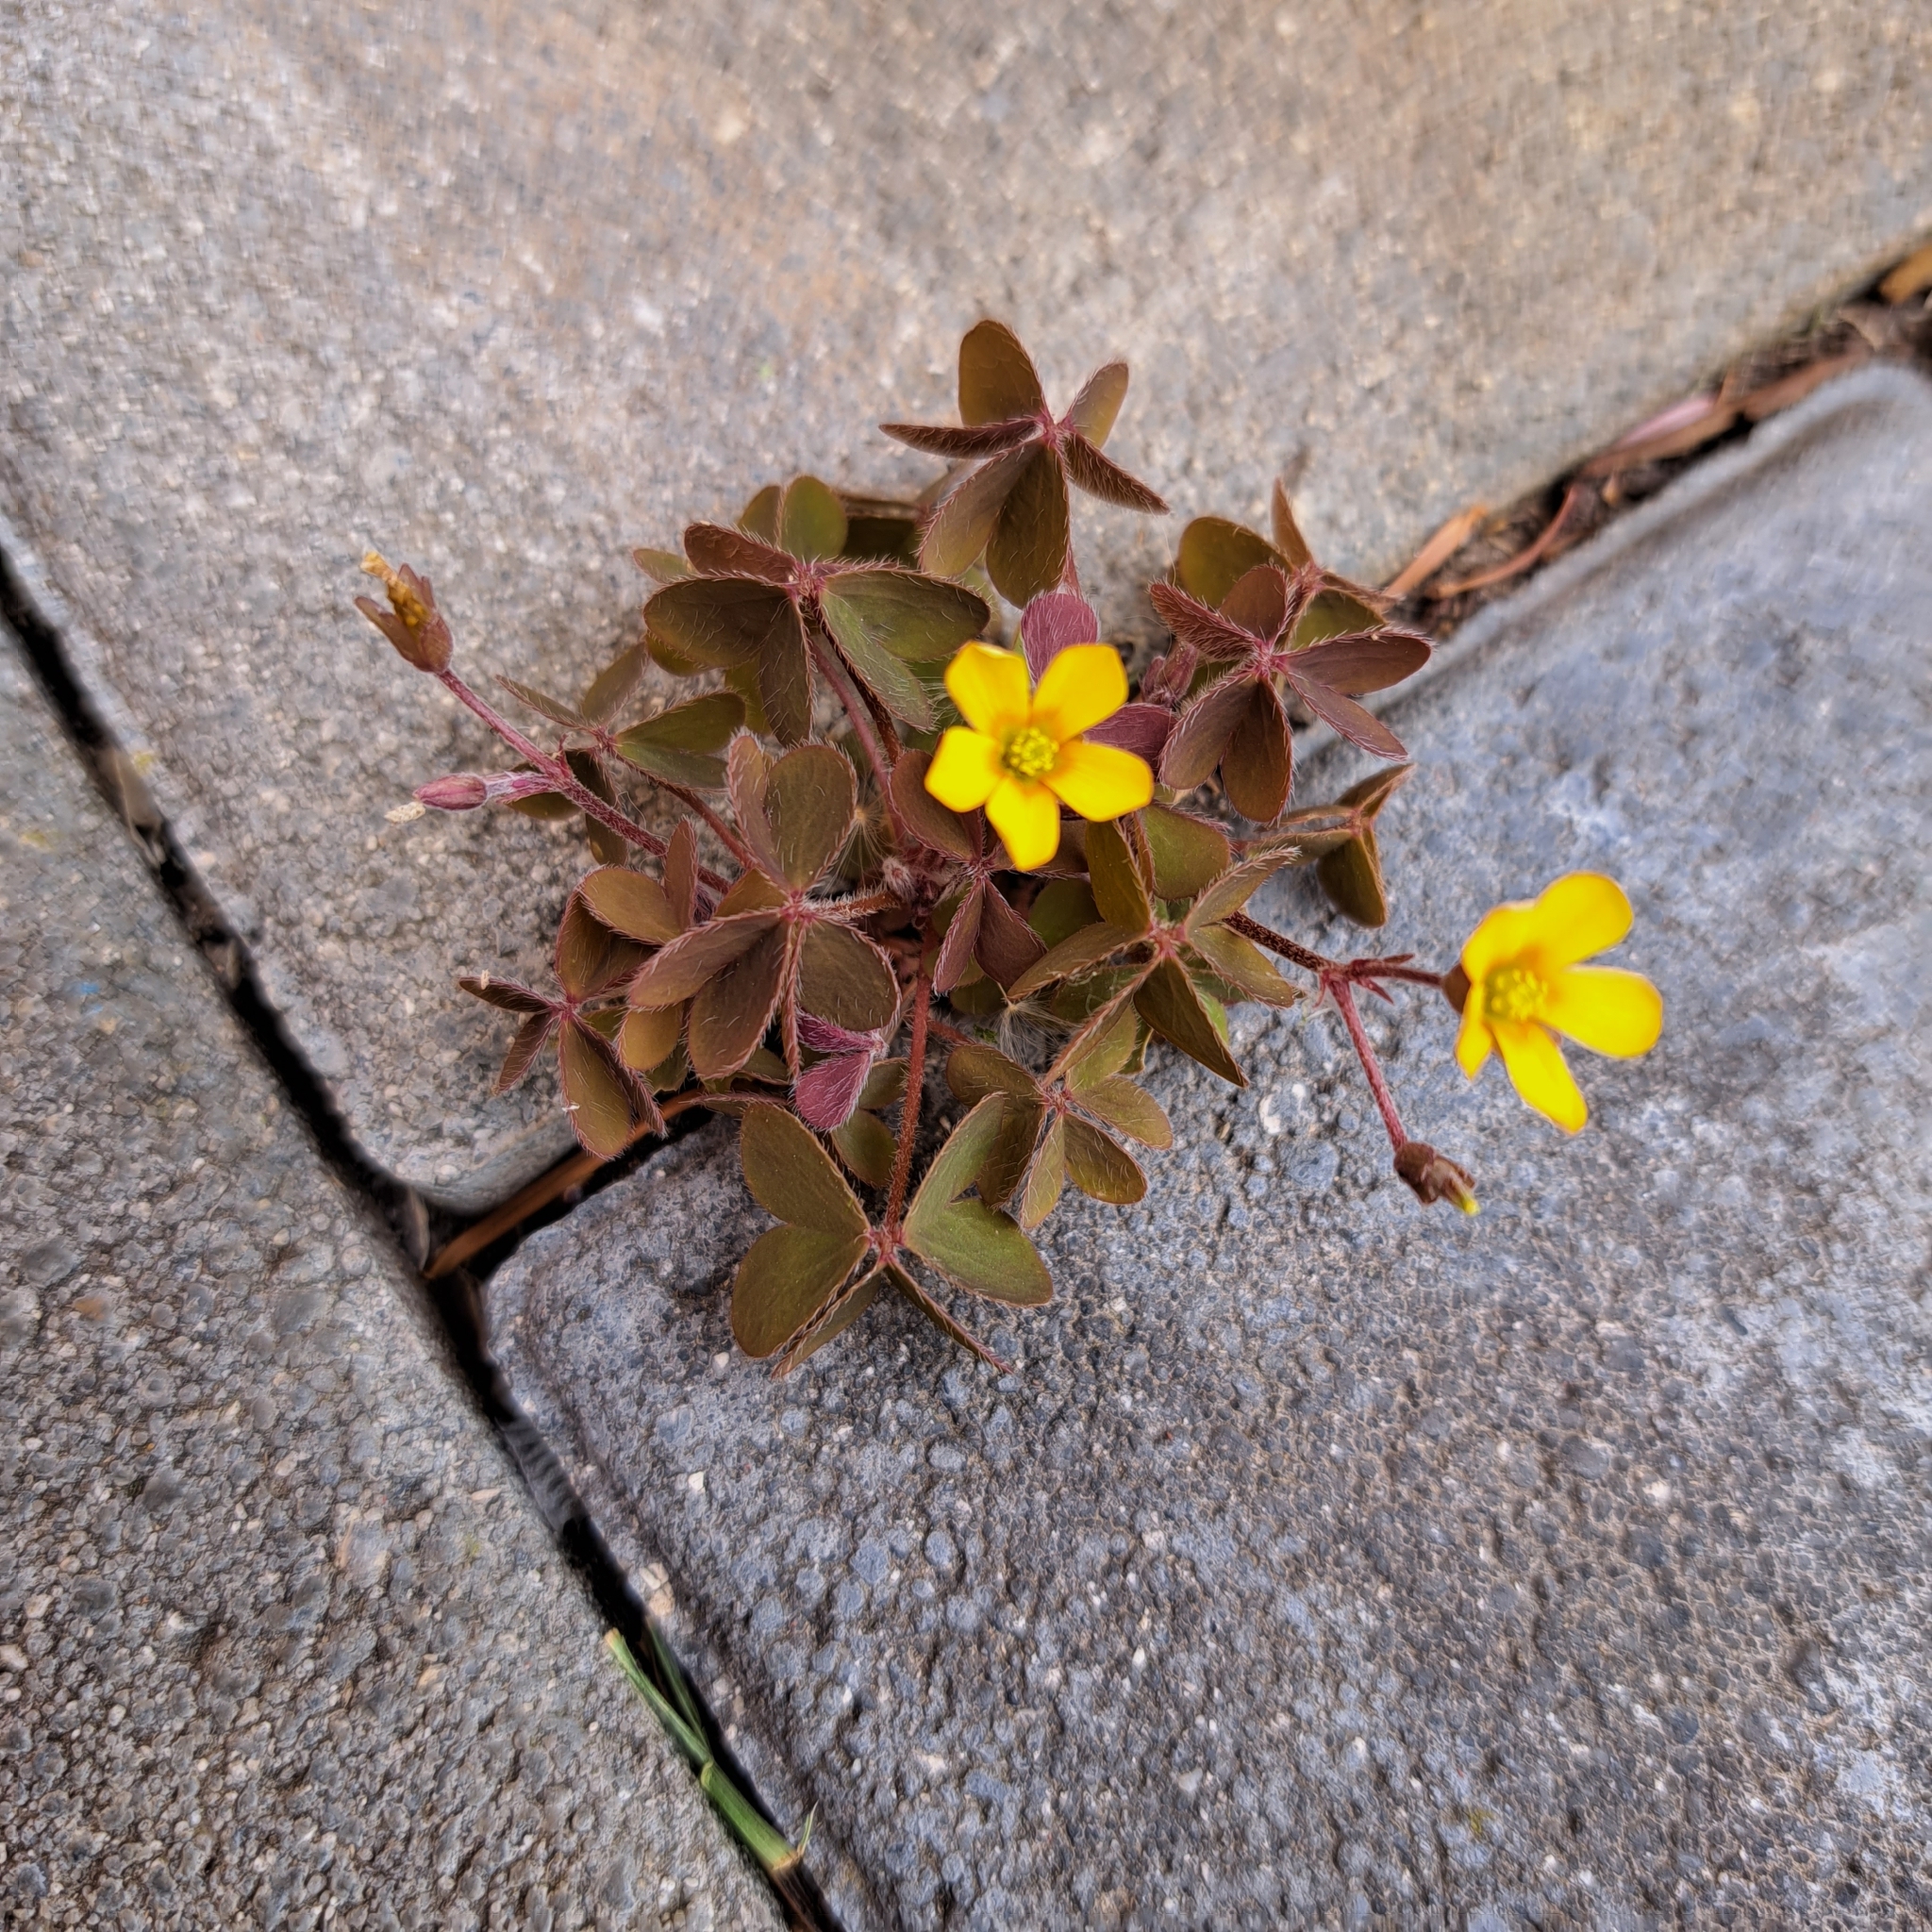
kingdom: Plantae
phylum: Tracheophyta
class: Magnoliopsida
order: Oxalidales
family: Oxalidaceae
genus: Oxalis
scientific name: Oxalis corniculata
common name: Procumbent yellow-sorrel
